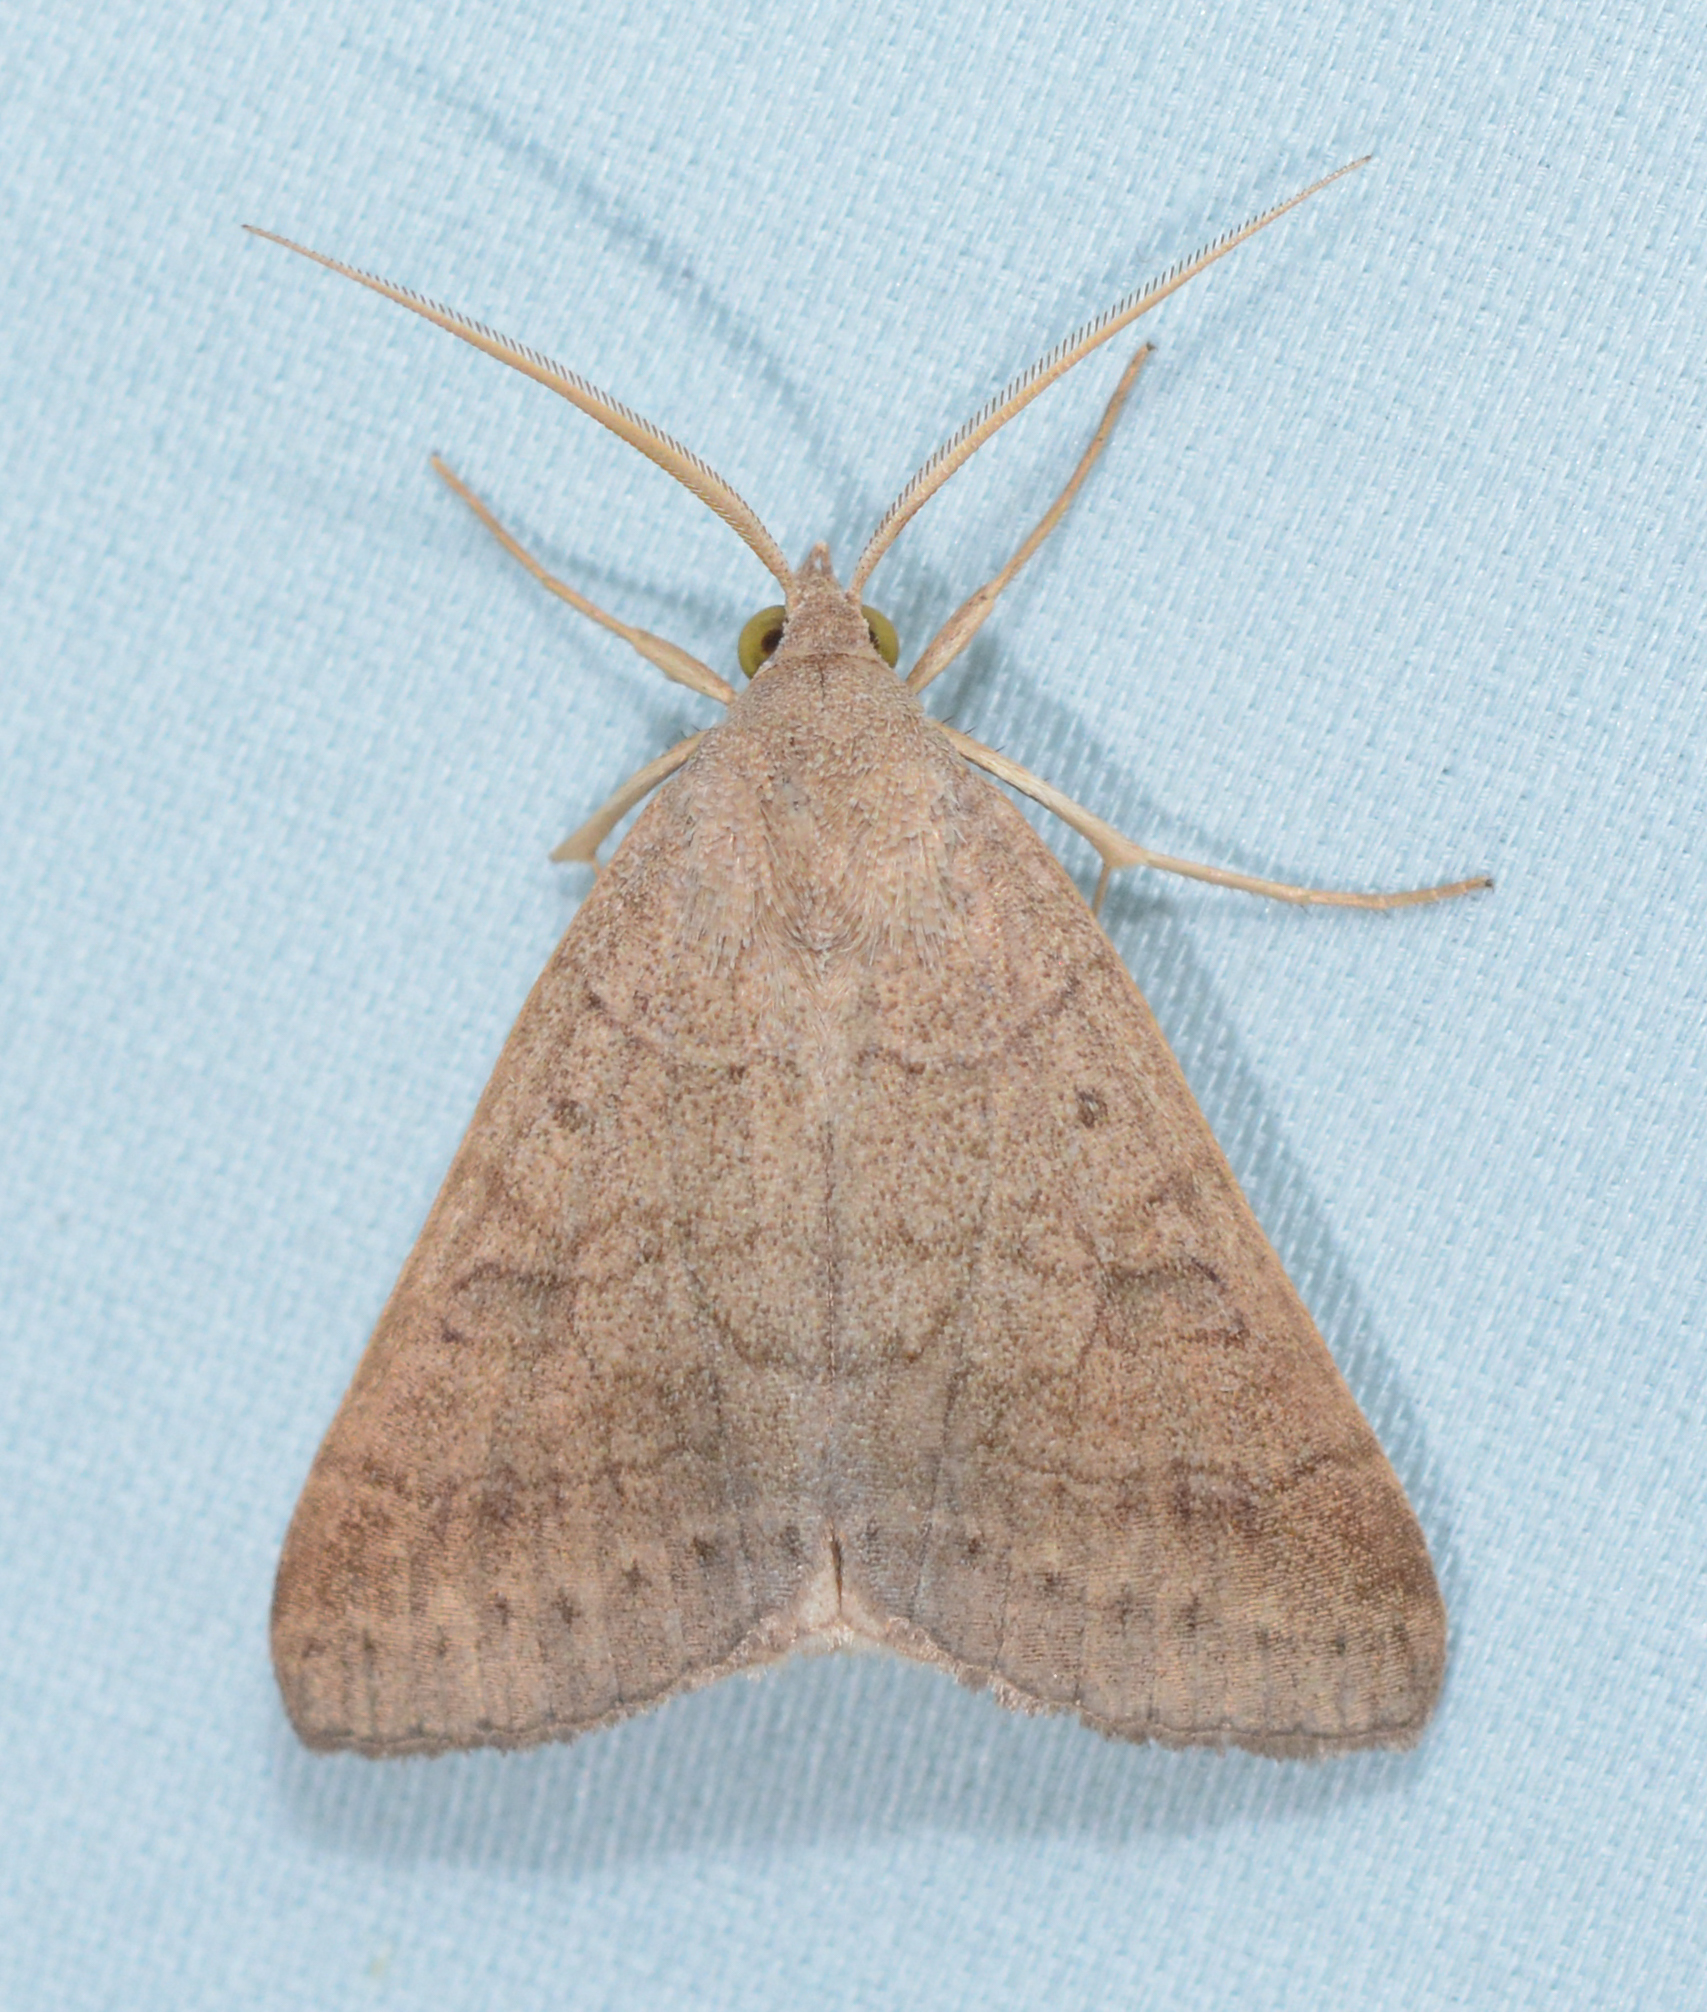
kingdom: Animalia
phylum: Arthropoda
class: Insecta
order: Lepidoptera
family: Erebidae
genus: Caenurgia
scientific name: Caenurgia chloropha
